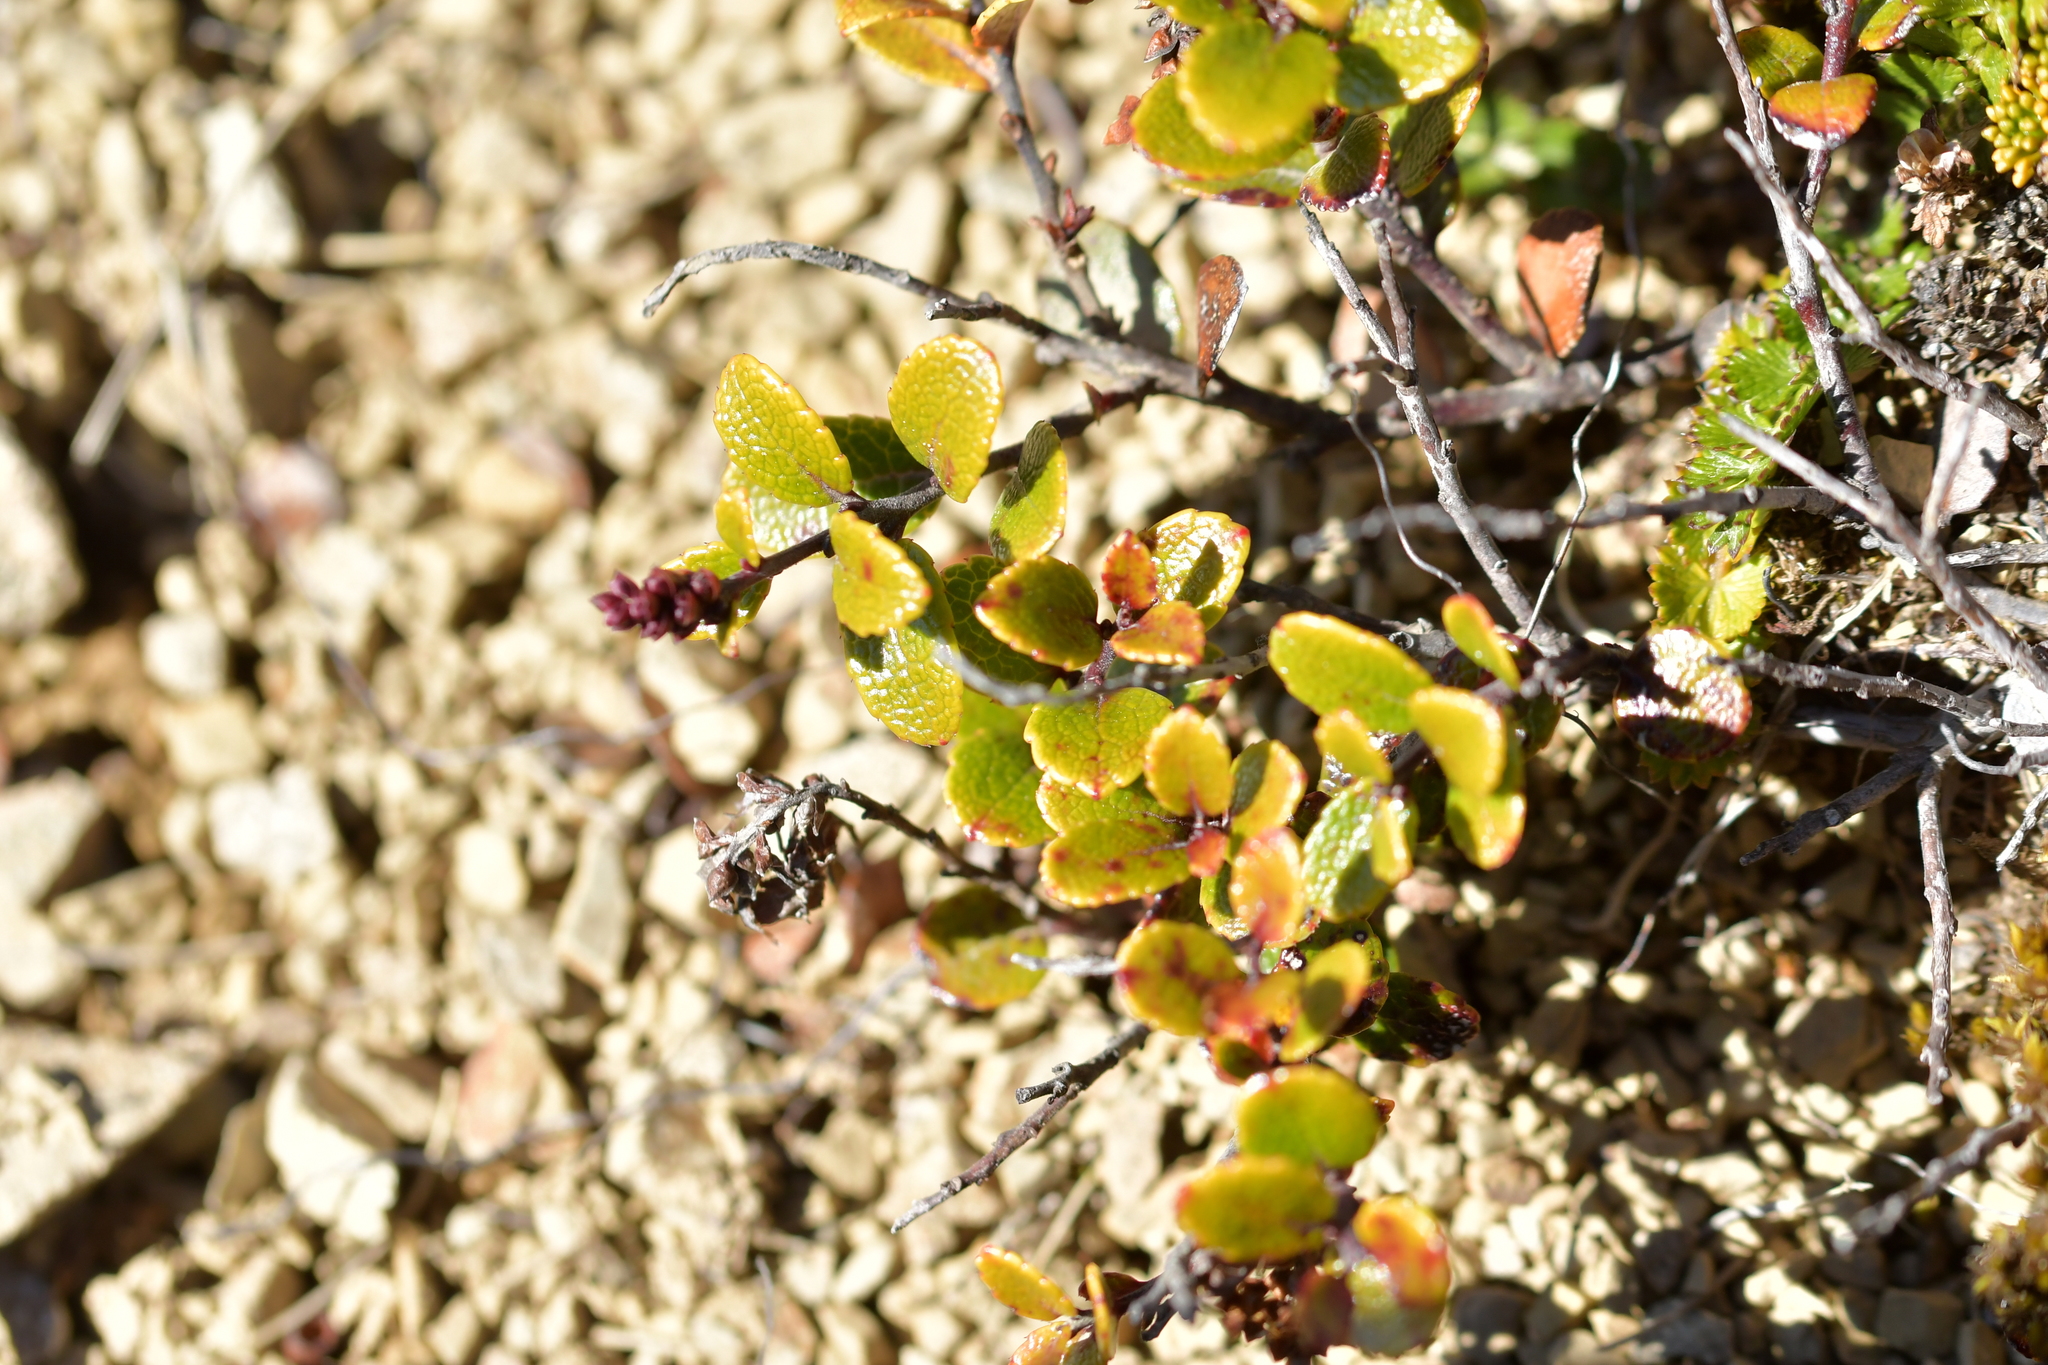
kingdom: Plantae
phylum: Tracheophyta
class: Magnoliopsida
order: Ericales
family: Ericaceae
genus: Gaultheria
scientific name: Gaultheria depressa
